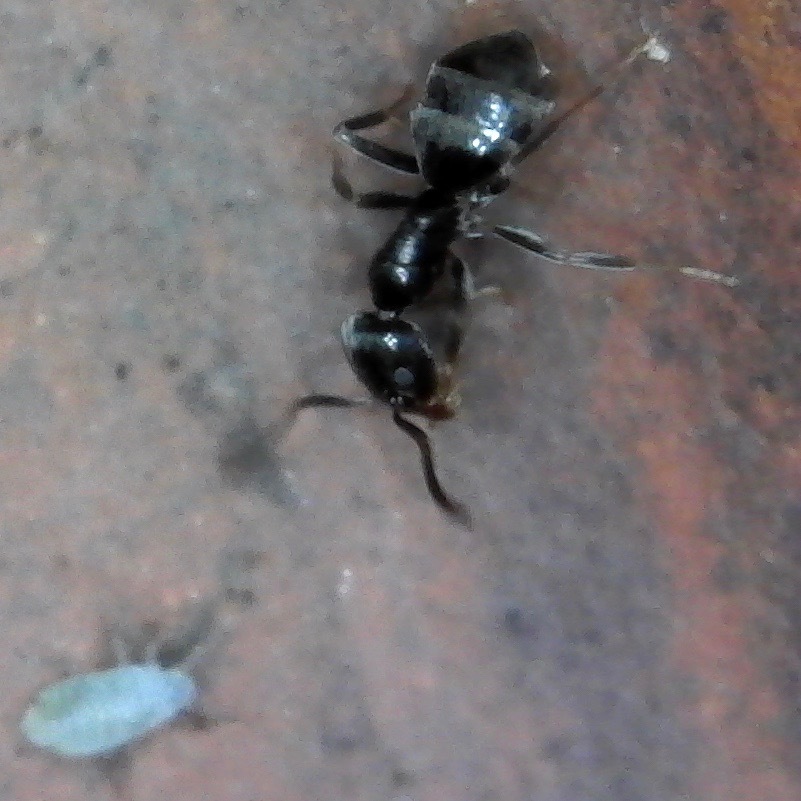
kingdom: Animalia
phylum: Arthropoda
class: Insecta
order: Hymenoptera
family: Formicidae
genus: Tapinoma
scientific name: Tapinoma sessile
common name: Odorous house ant
